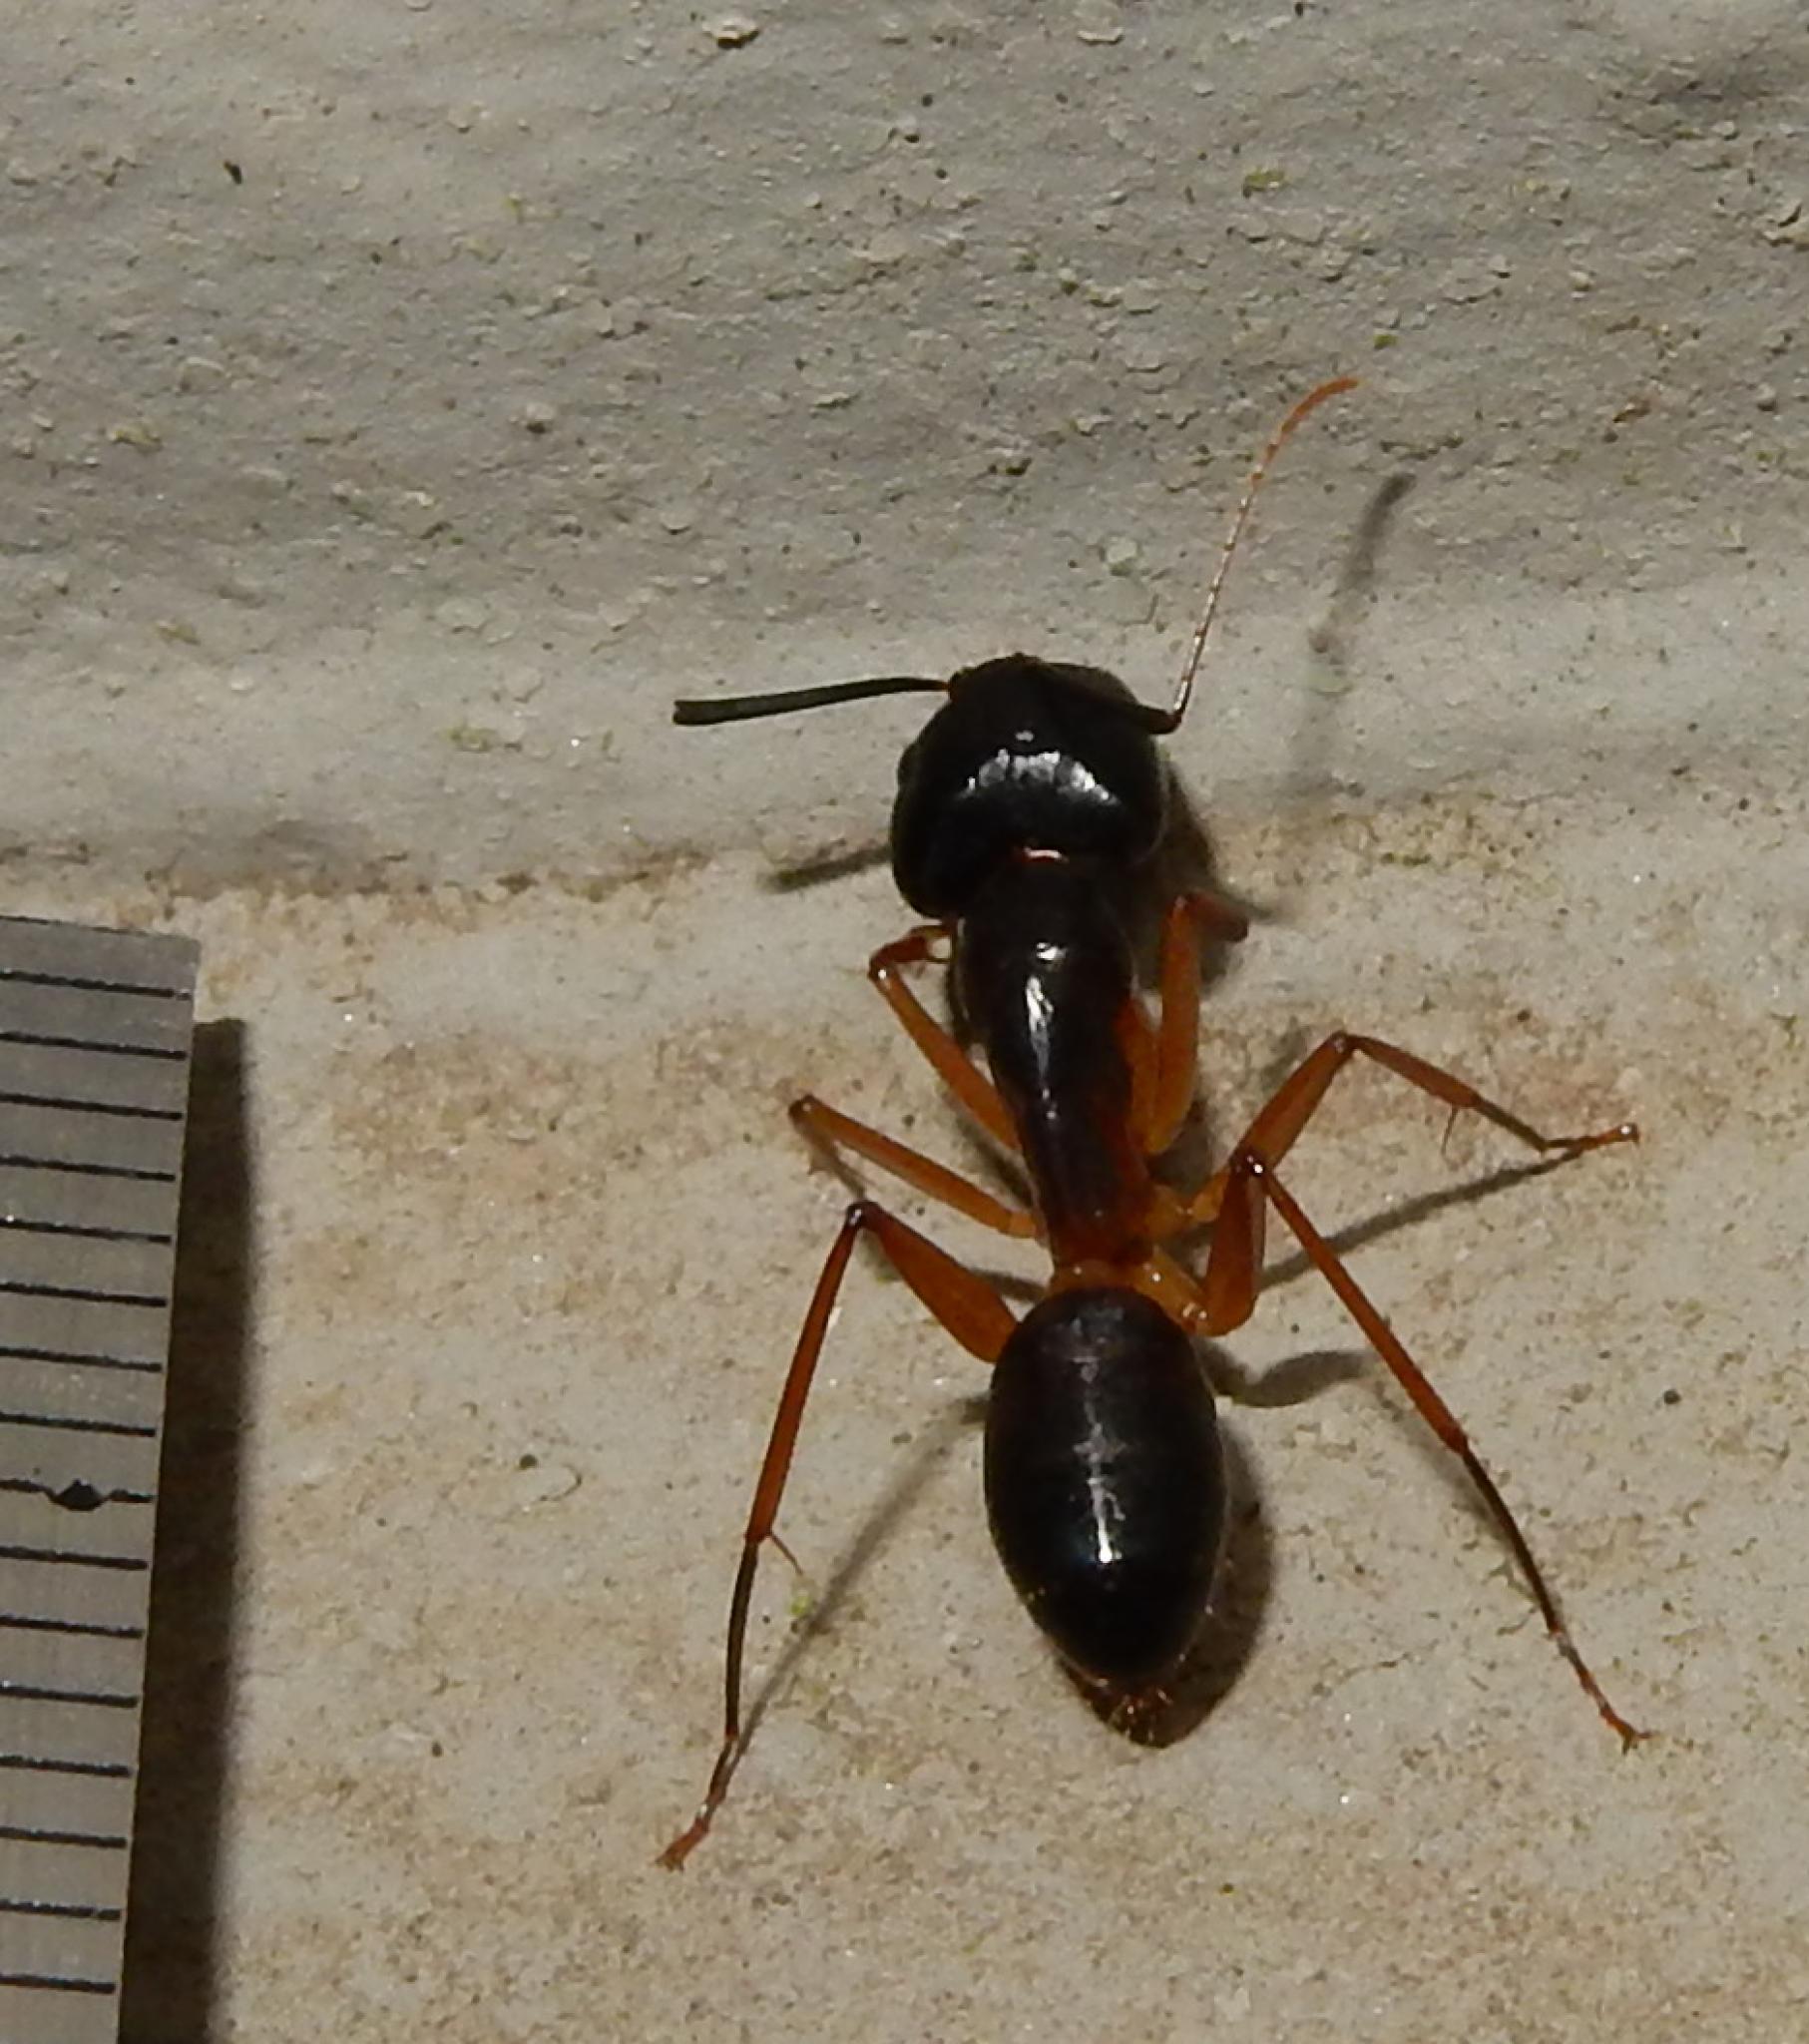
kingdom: Animalia
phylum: Arthropoda
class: Insecta
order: Hymenoptera
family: Formicidae
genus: Camponotus
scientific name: Camponotus baynei
